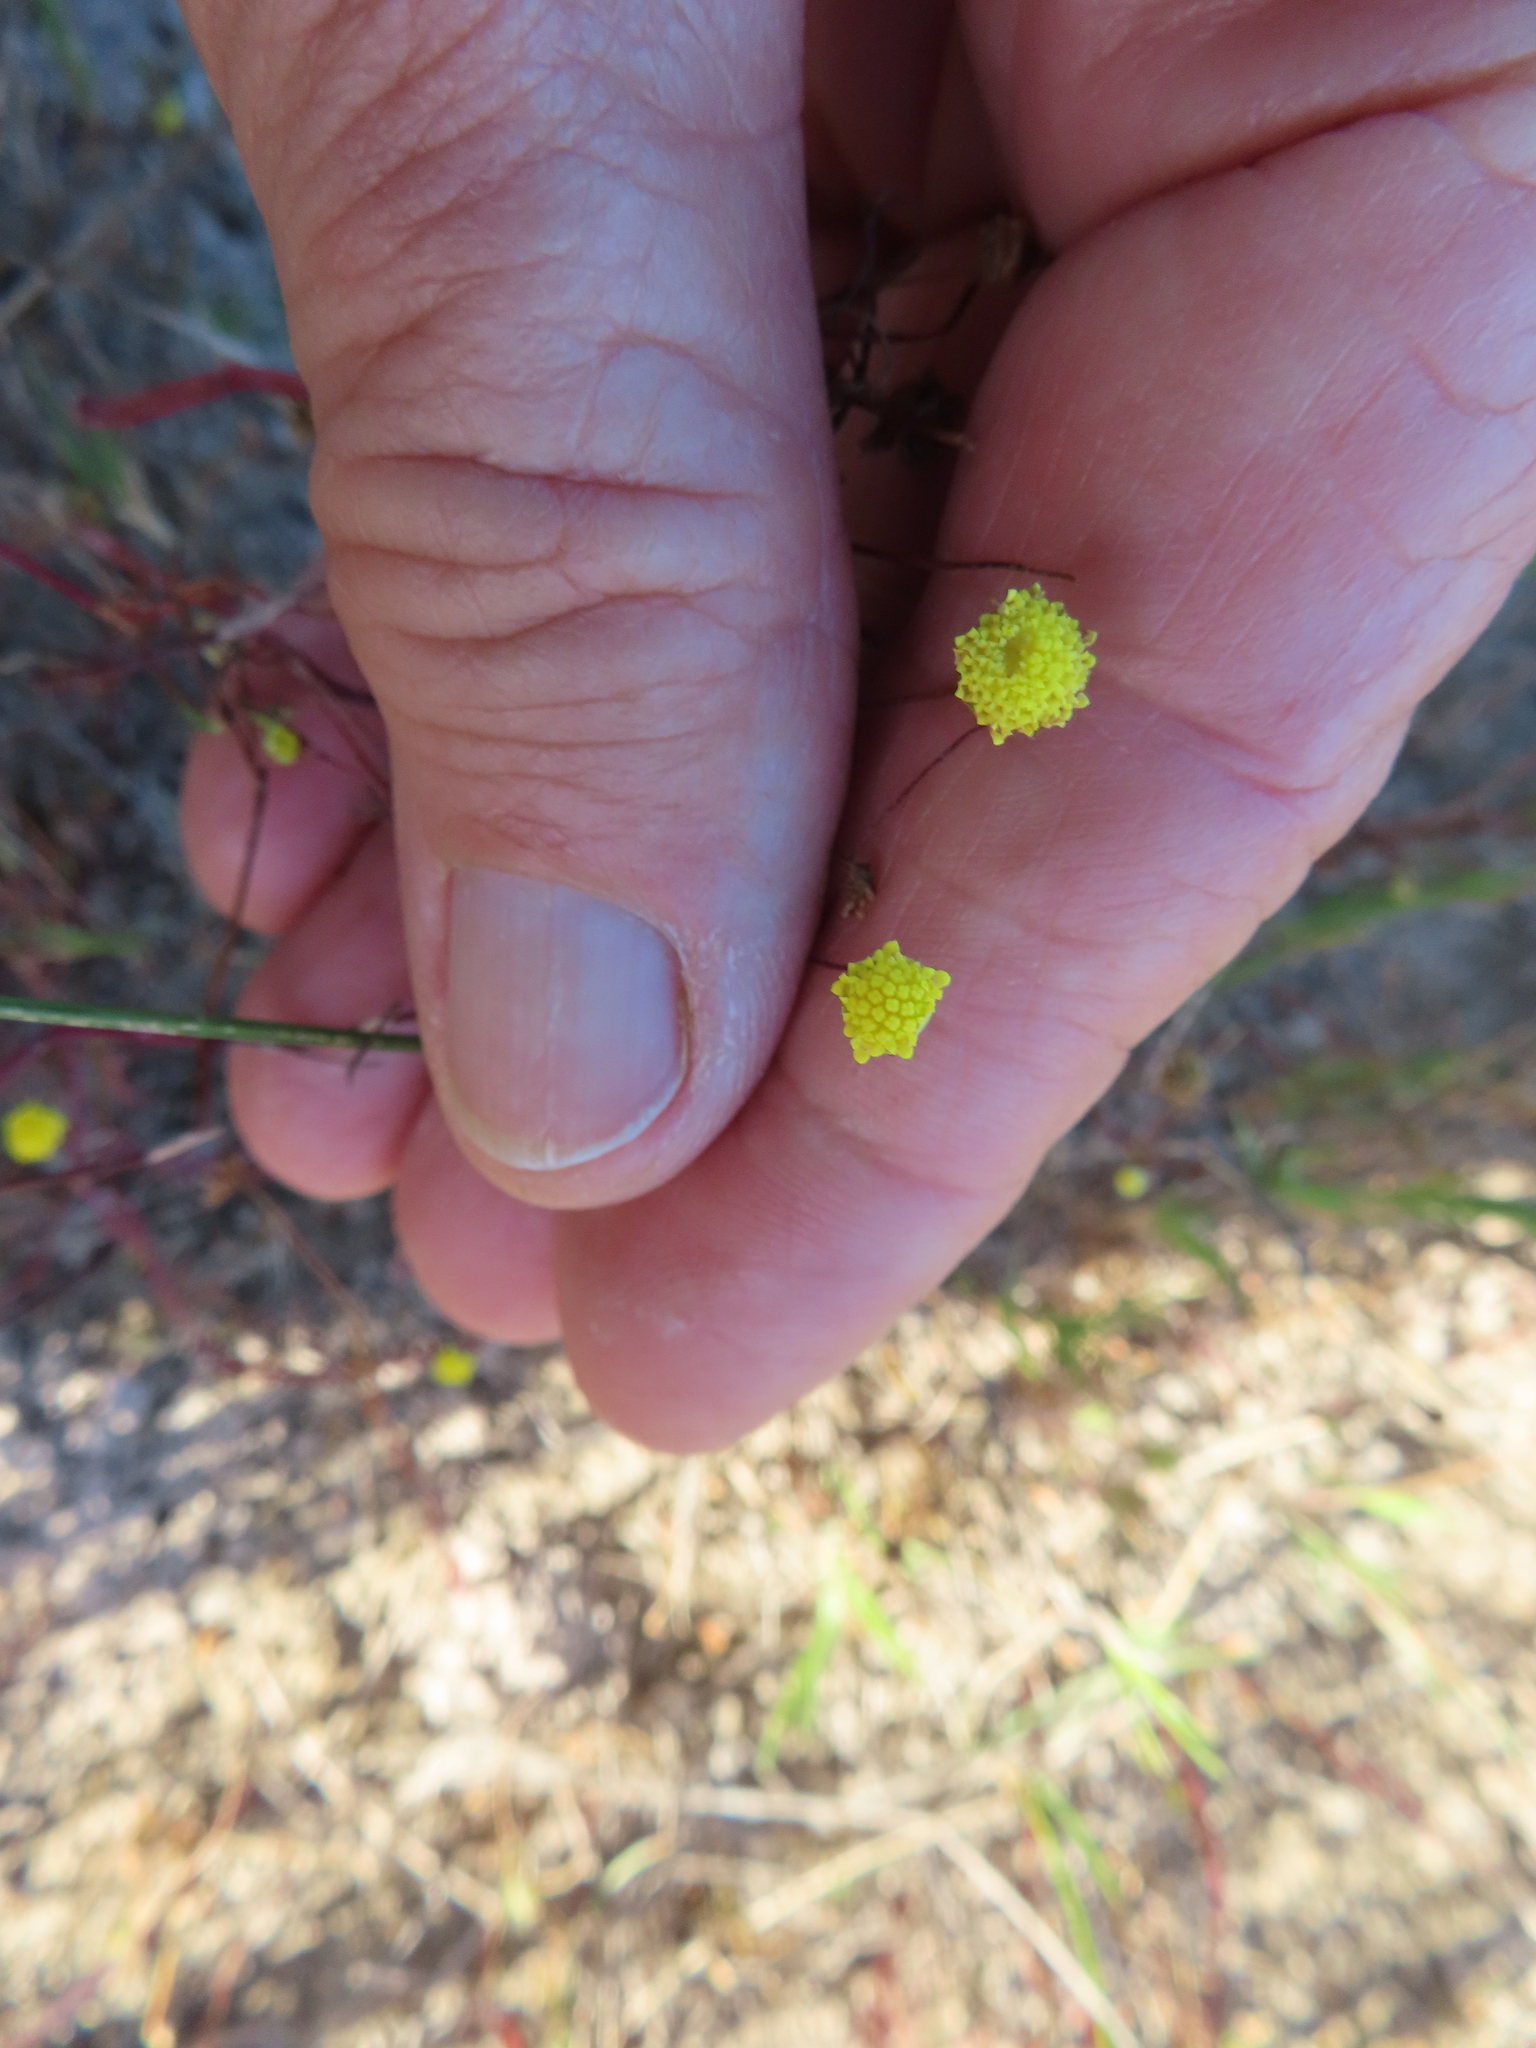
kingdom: Plantae
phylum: Tracheophyta
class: Magnoliopsida
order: Asterales
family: Asteraceae
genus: Cotula
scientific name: Cotula filifolia
